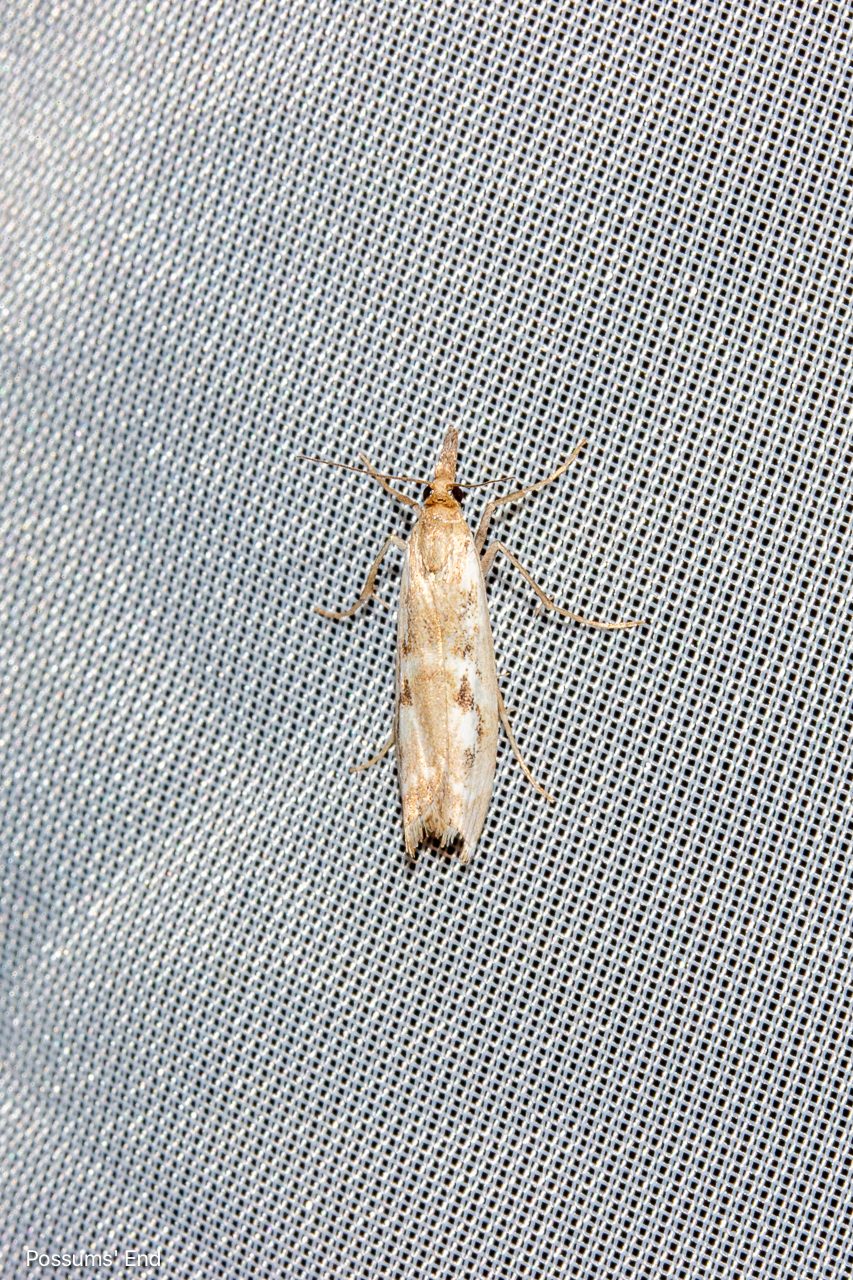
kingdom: Animalia
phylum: Arthropoda
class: Insecta
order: Lepidoptera
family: Crambidae
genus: Orocrambus
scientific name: Orocrambus vulgaris
